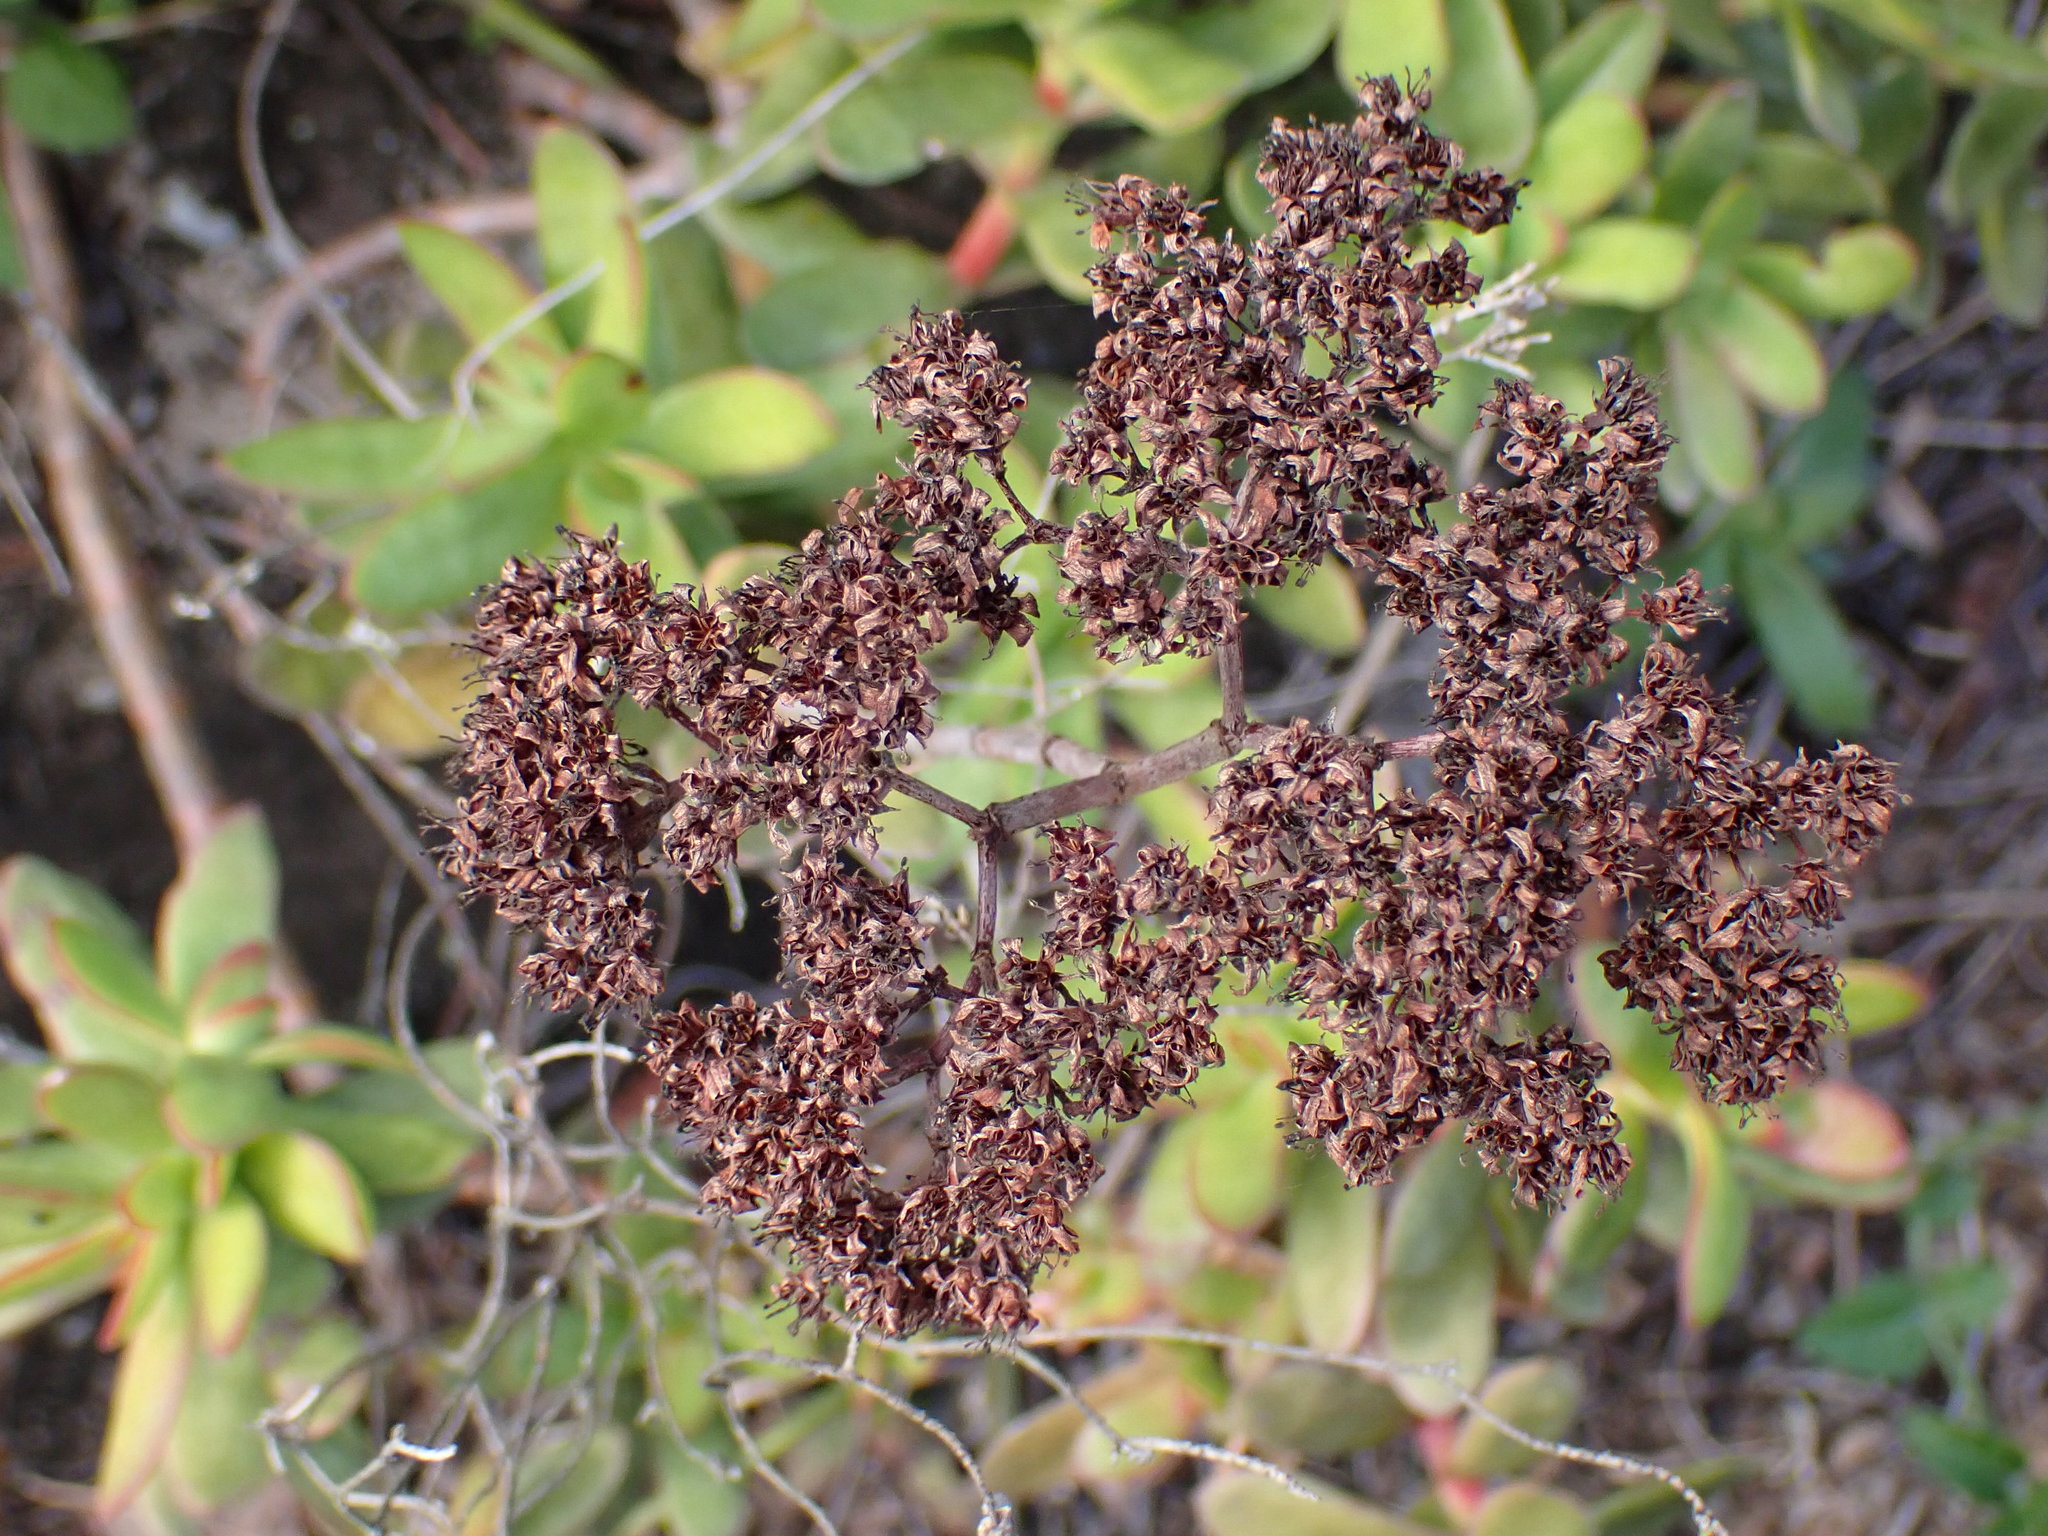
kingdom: Plantae
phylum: Tracheophyta
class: Magnoliopsida
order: Saxifragales
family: Crassulaceae
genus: Crassula
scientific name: Crassula rubricaulis
